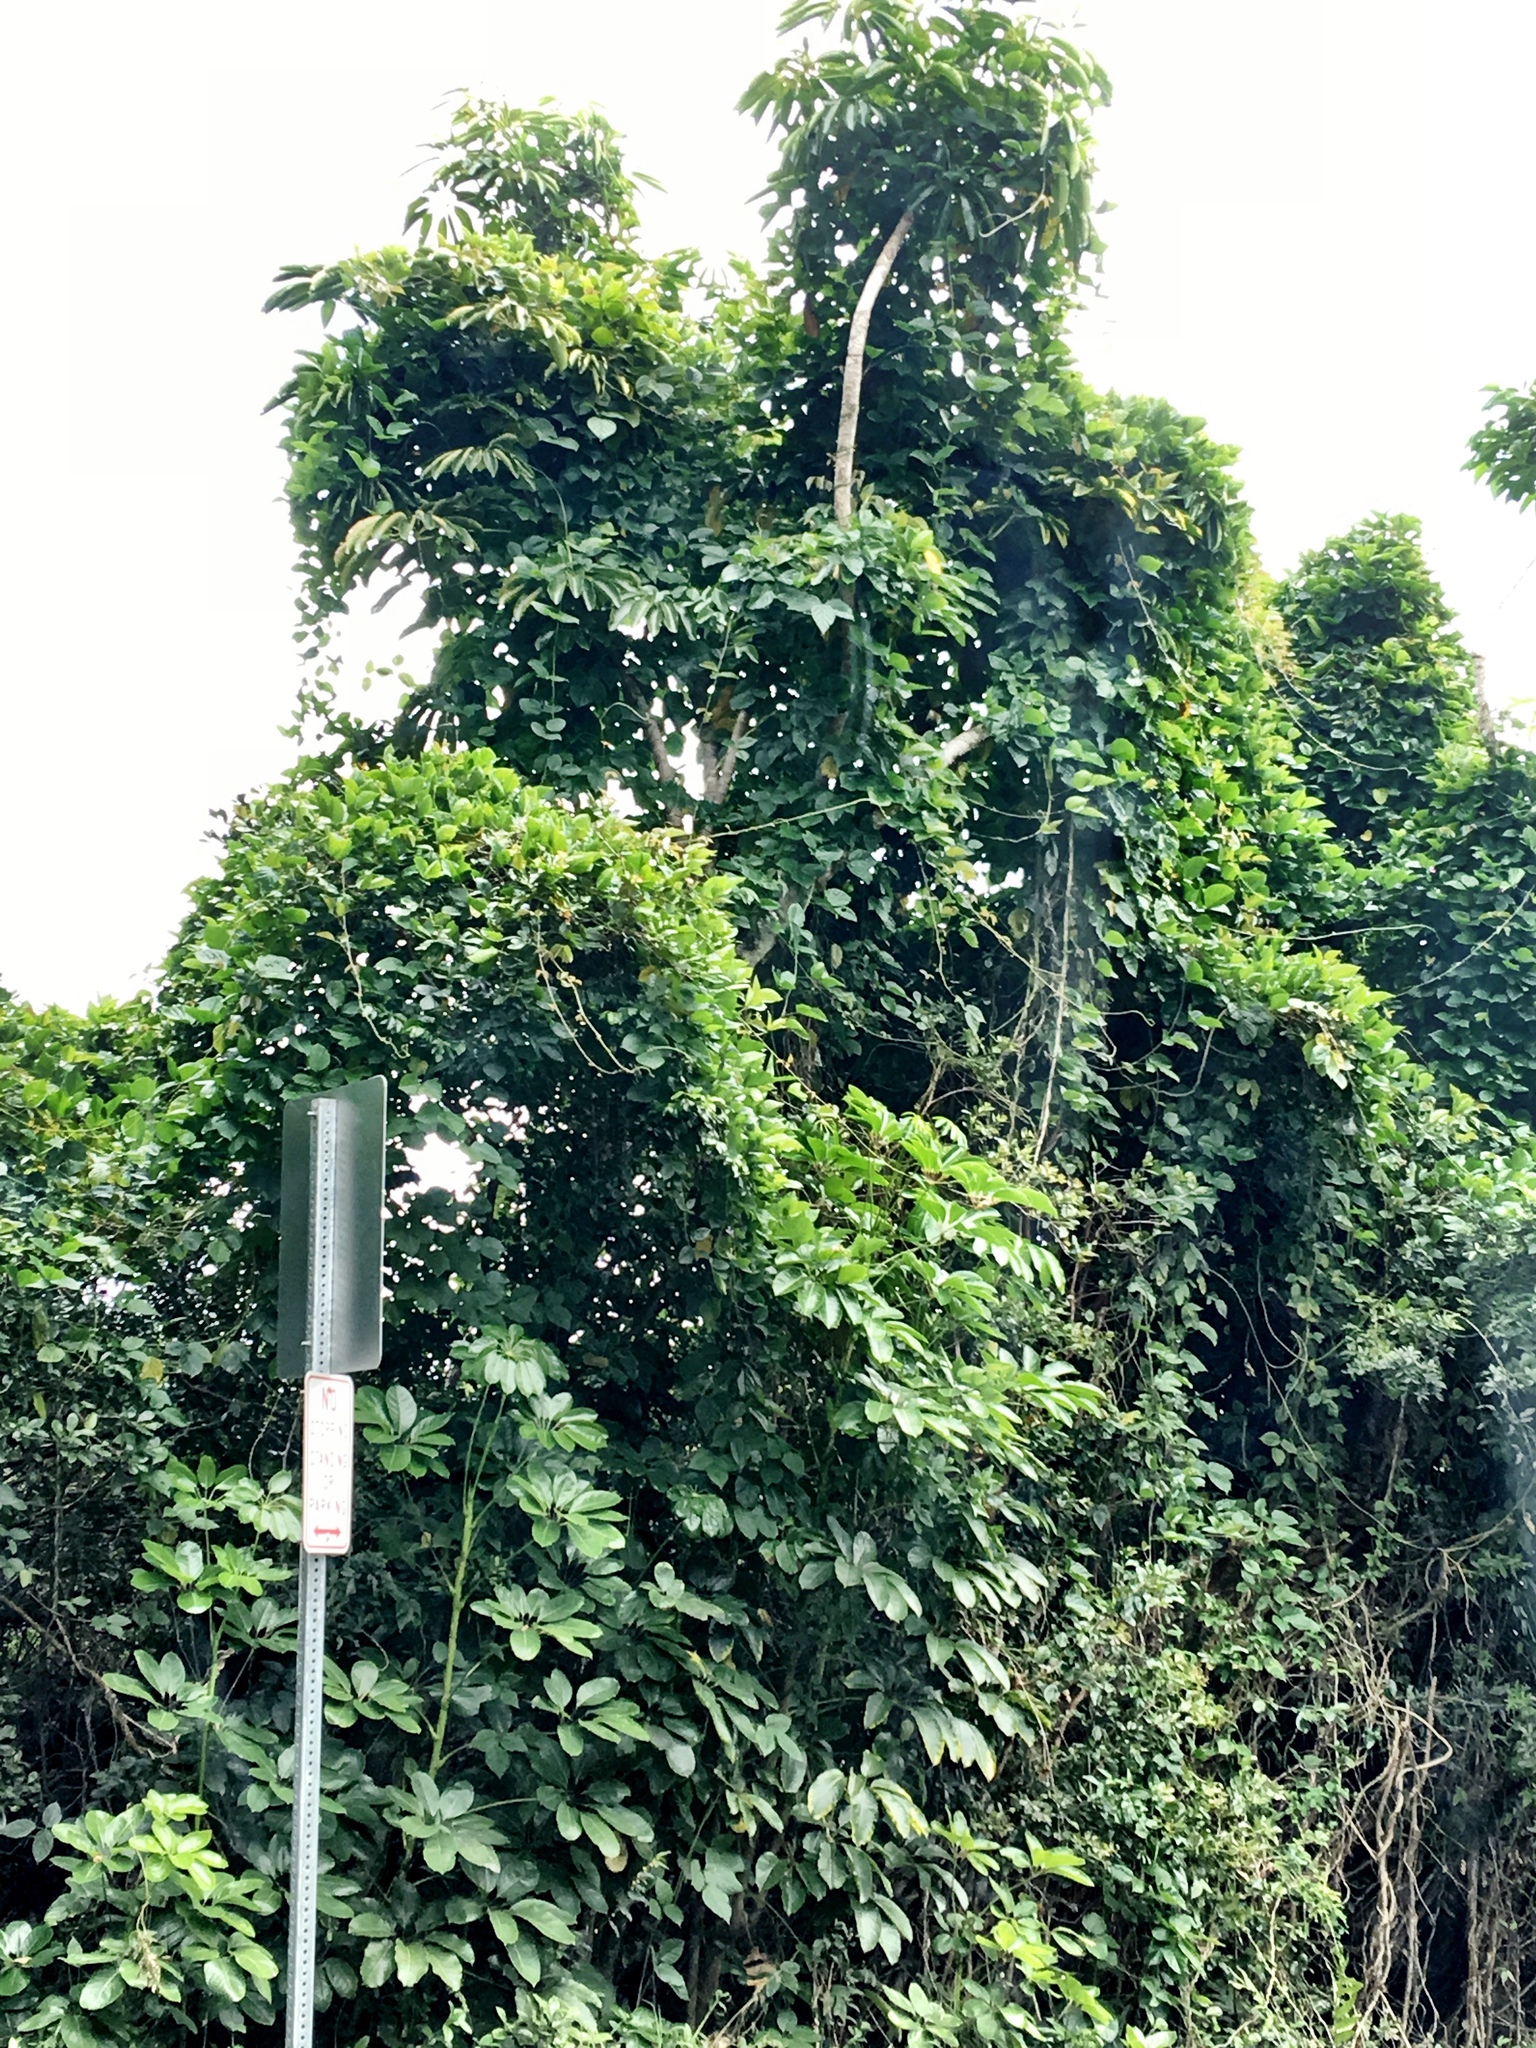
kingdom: Plantae
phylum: Tracheophyta
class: Magnoliopsida
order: Apiales
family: Araliaceae
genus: Heptapleurum
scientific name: Heptapleurum actinophyllum
